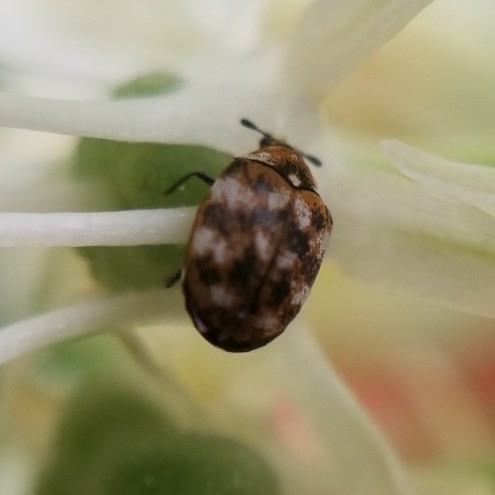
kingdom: Animalia
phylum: Arthropoda
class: Insecta
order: Coleoptera
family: Dermestidae
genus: Anthrenus
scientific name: Anthrenus verbasci
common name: Varied carpet beetle
